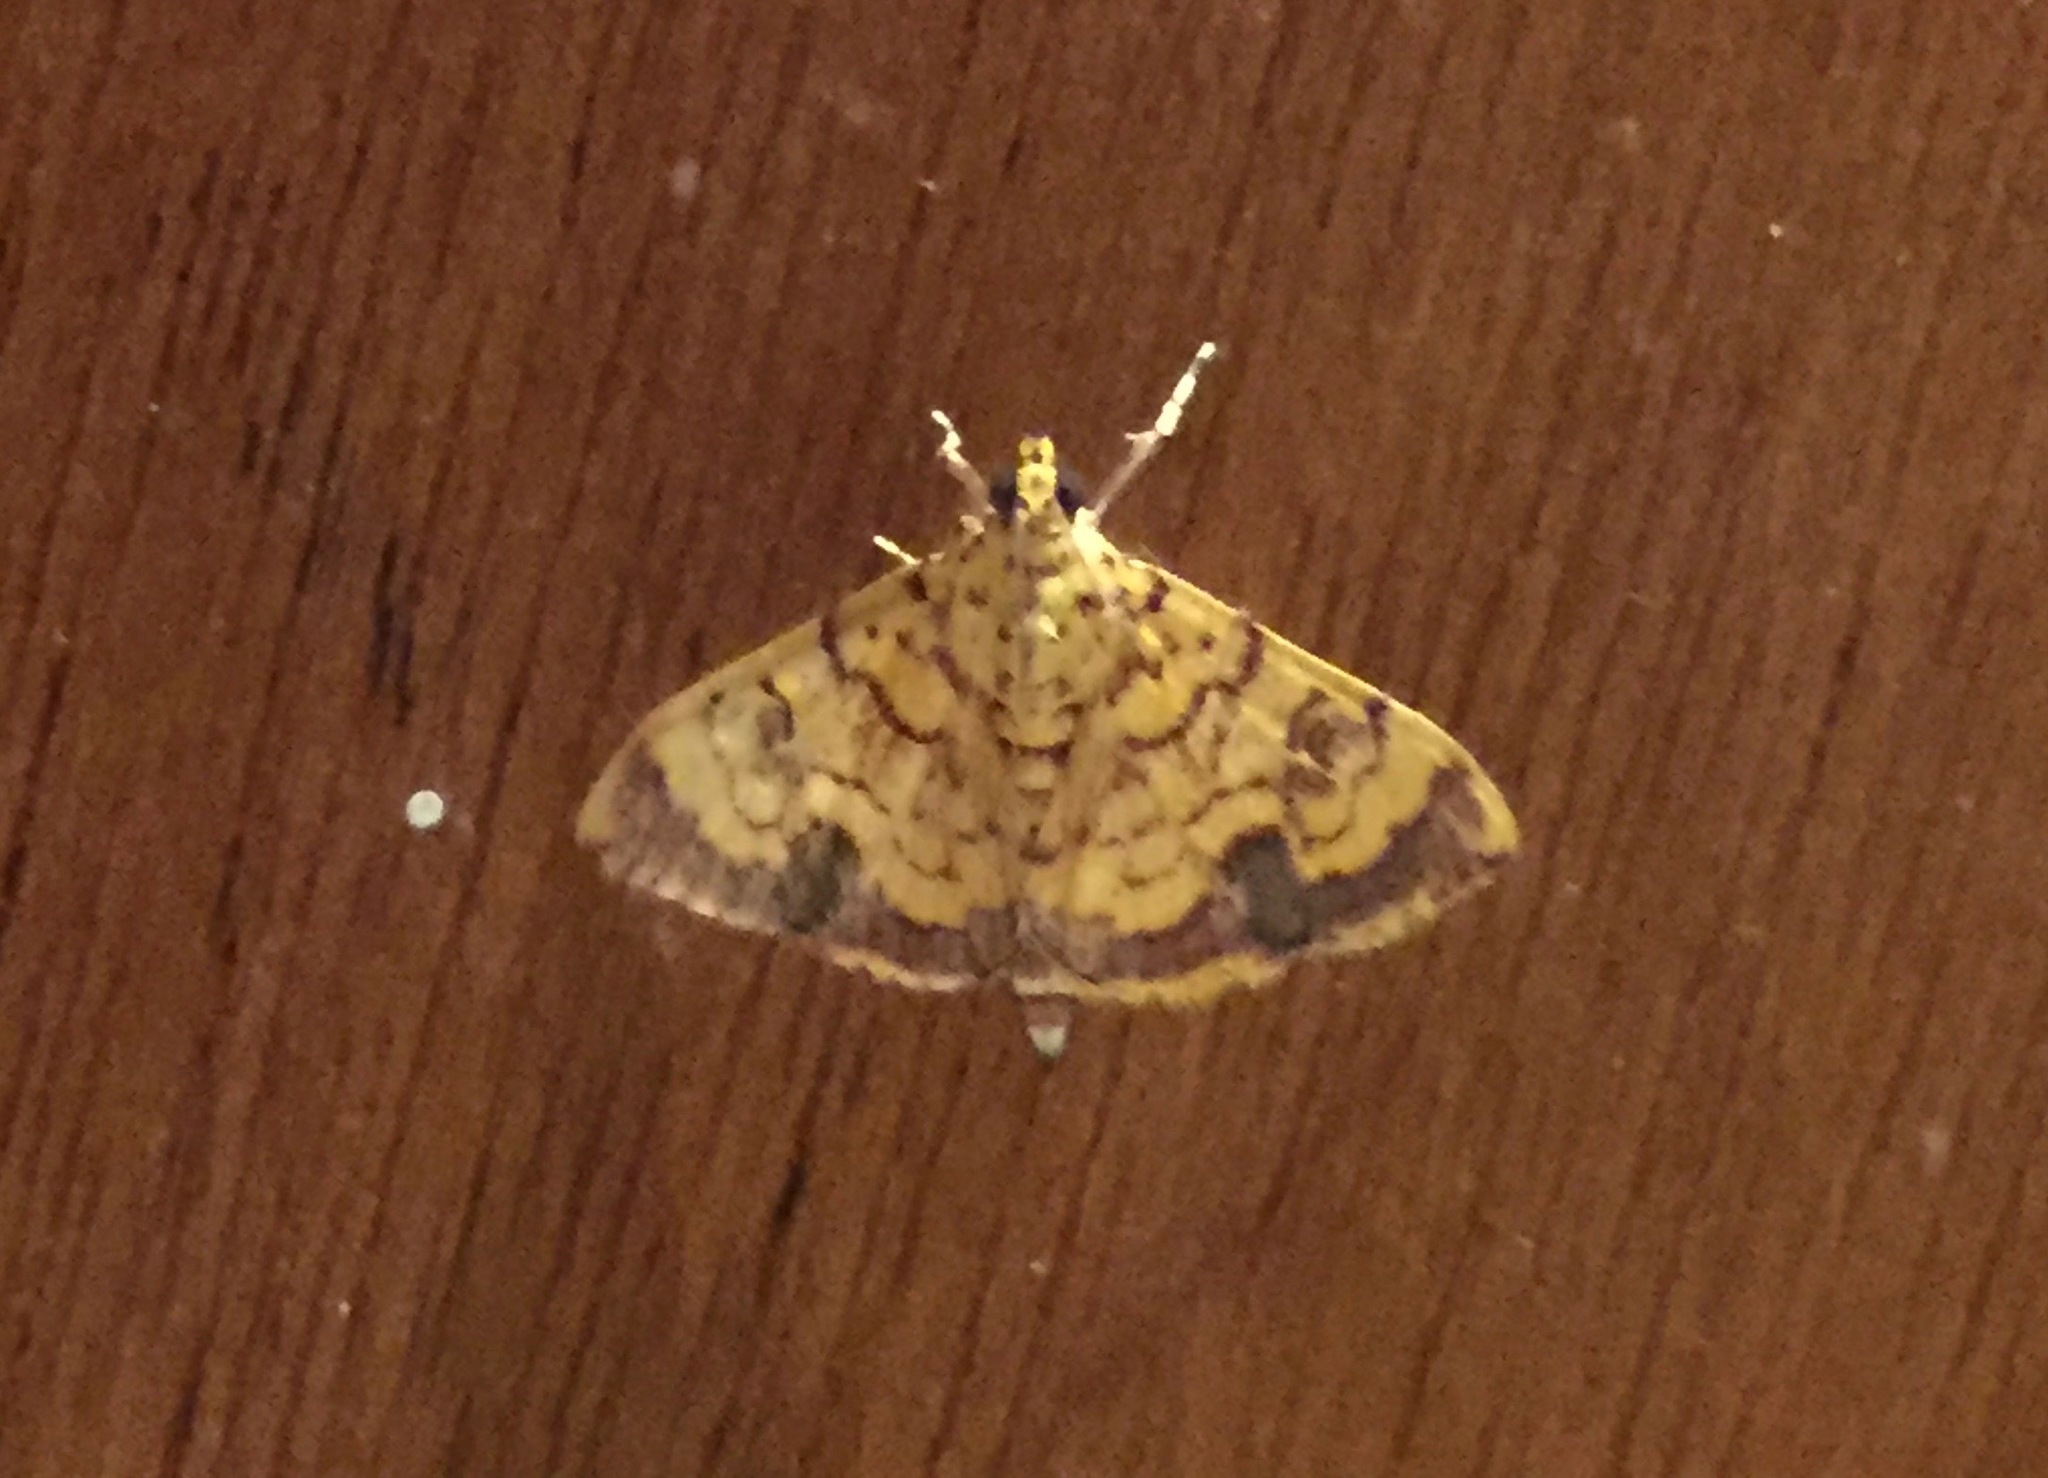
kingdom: Animalia
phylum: Arthropoda
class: Insecta
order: Lepidoptera
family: Crambidae
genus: Portentomorpha
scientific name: Portentomorpha xanthialis
